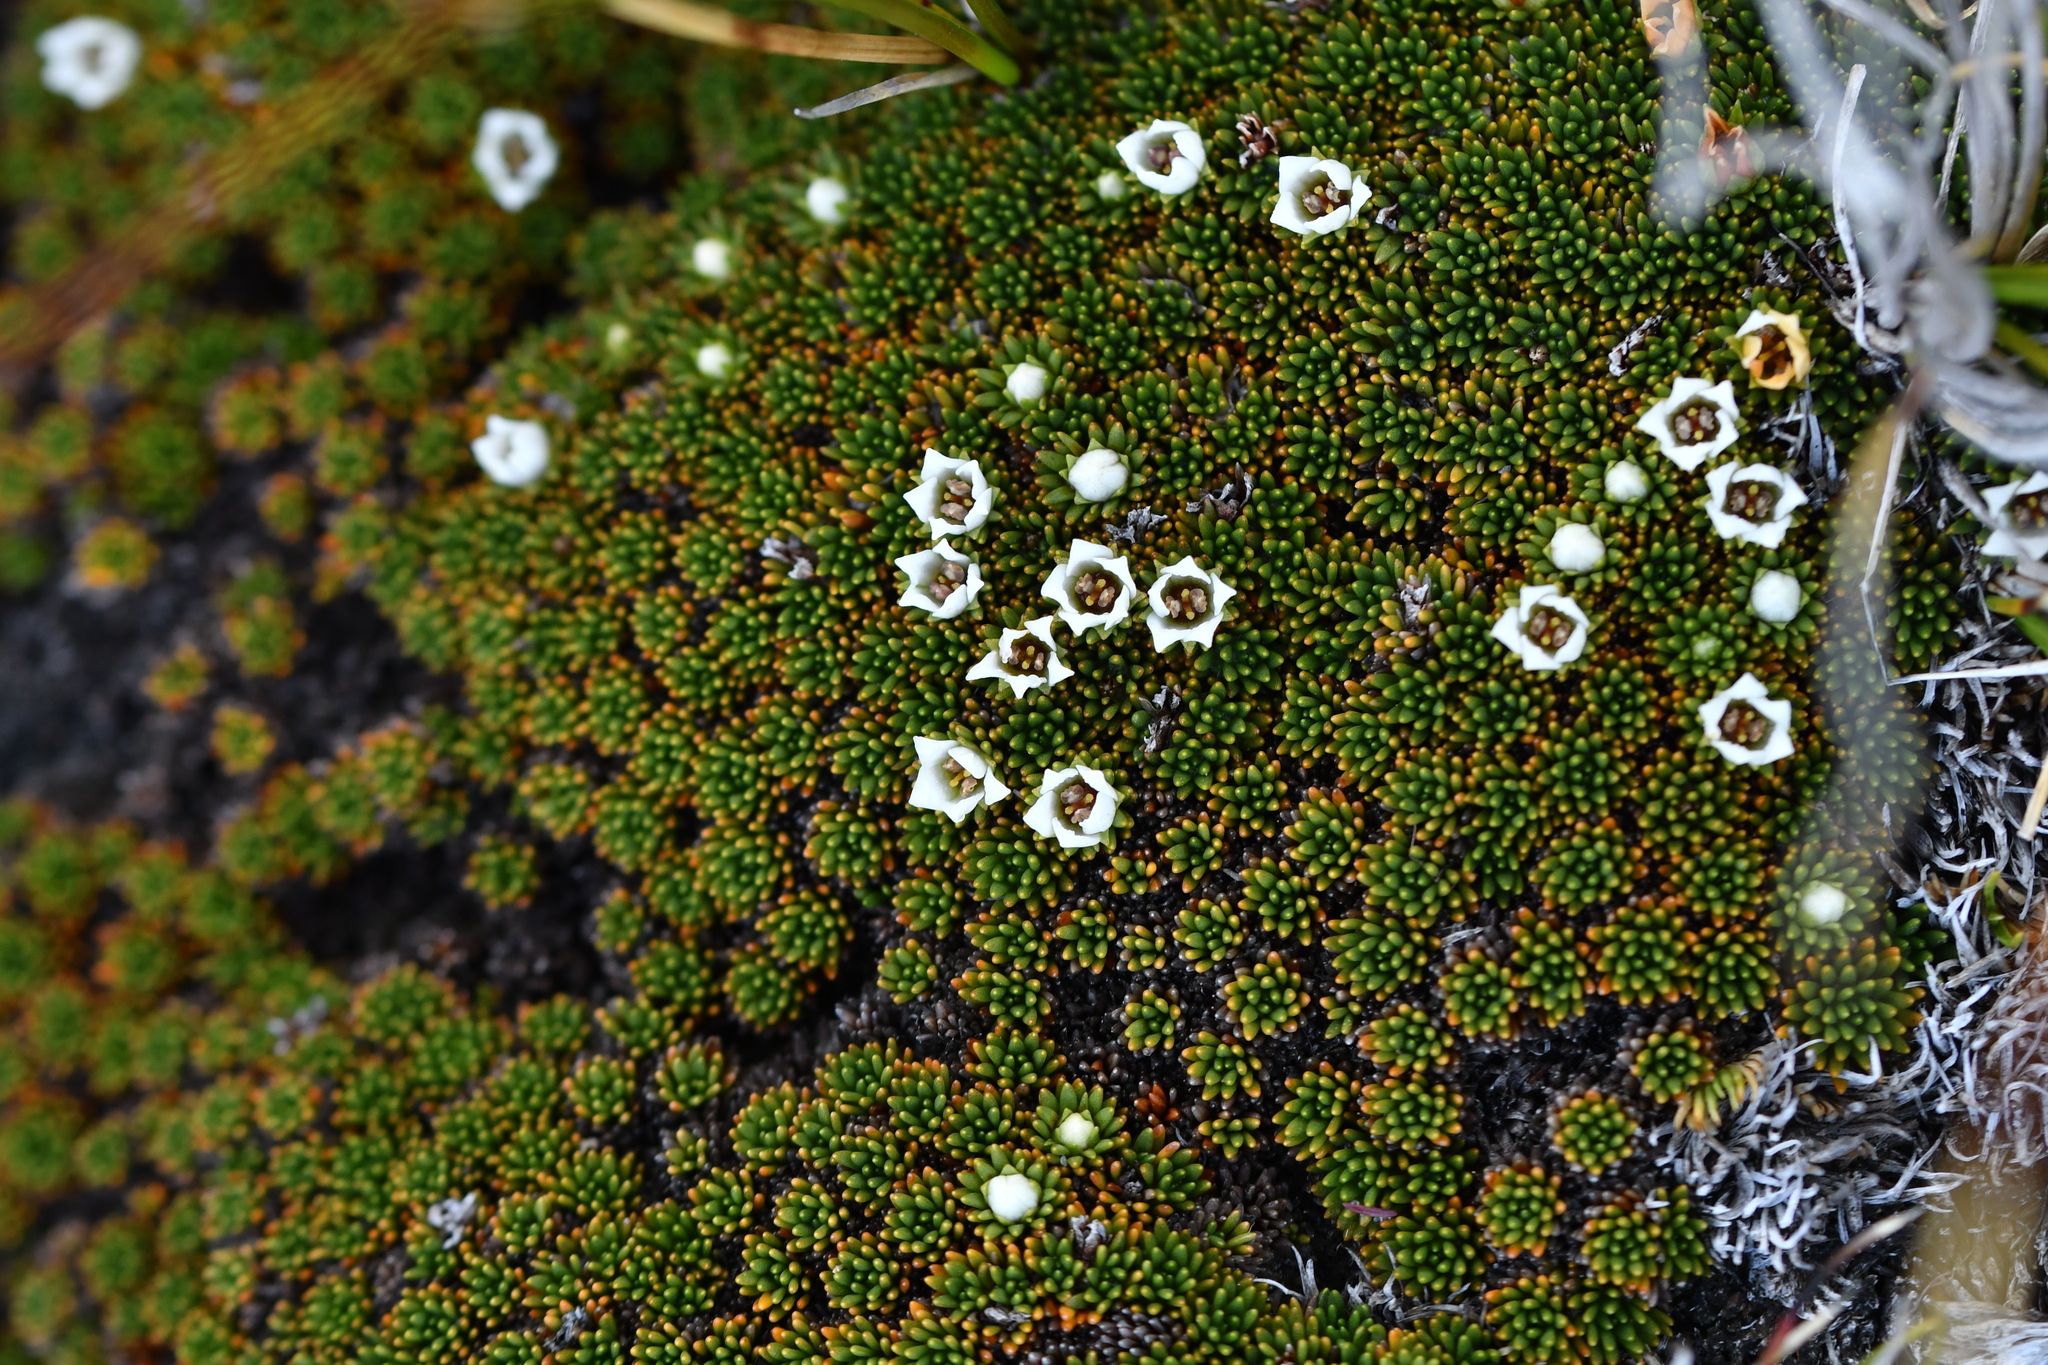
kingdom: Plantae
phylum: Tracheophyta
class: Magnoliopsida
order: Asterales
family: Stylidiaceae
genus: Donatia
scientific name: Donatia novae-zelandiae
